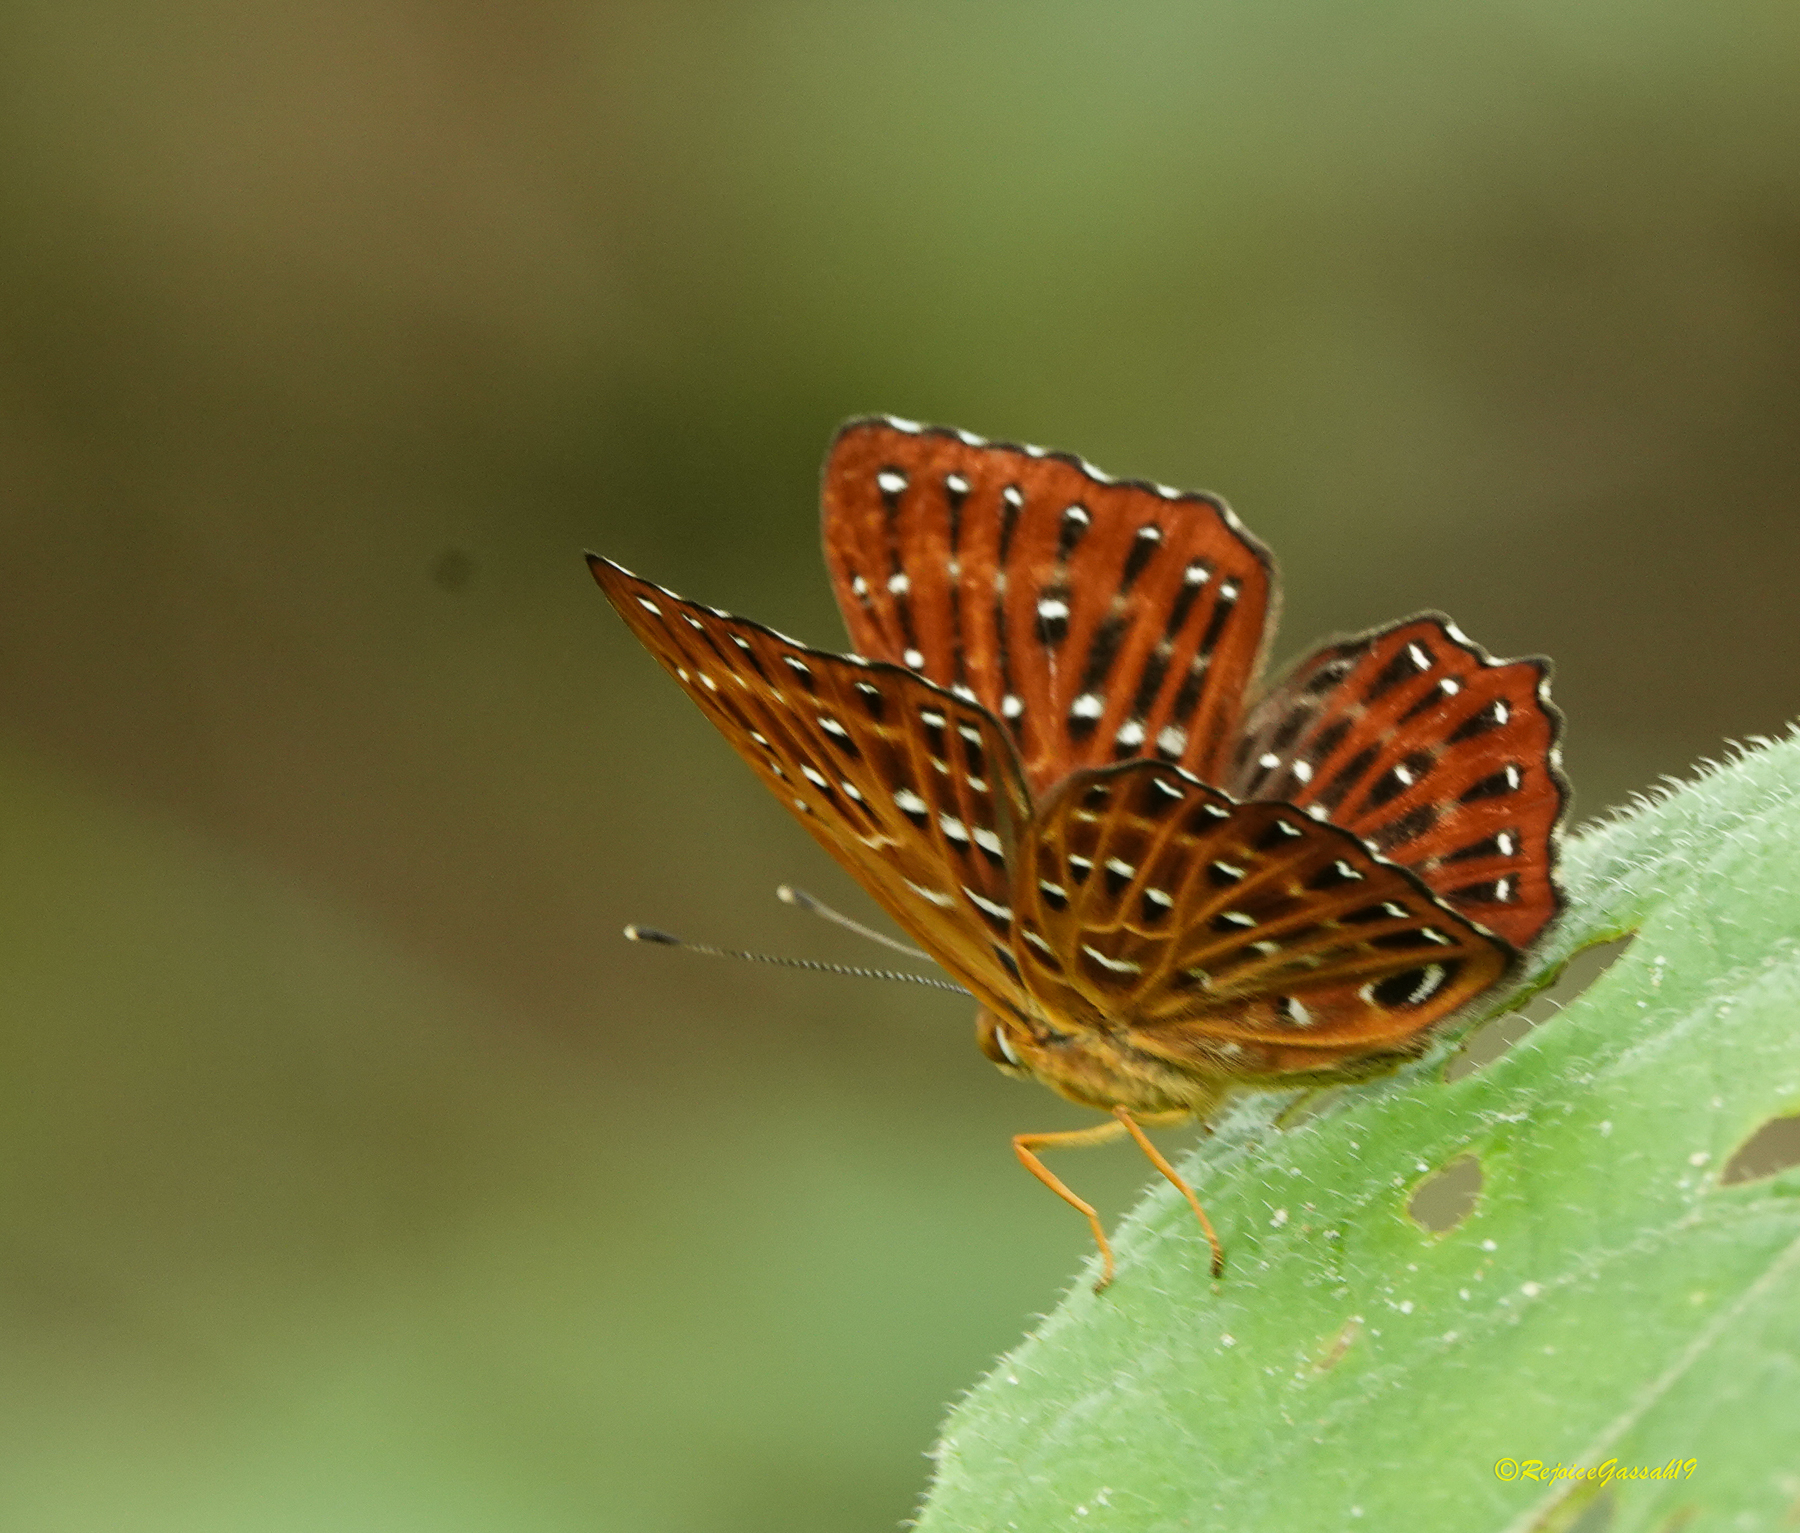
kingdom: Animalia
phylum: Arthropoda
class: Insecta
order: Lepidoptera
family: Riodinidae
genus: Zemeros
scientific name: Zemeros flegyas
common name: Punchinello
